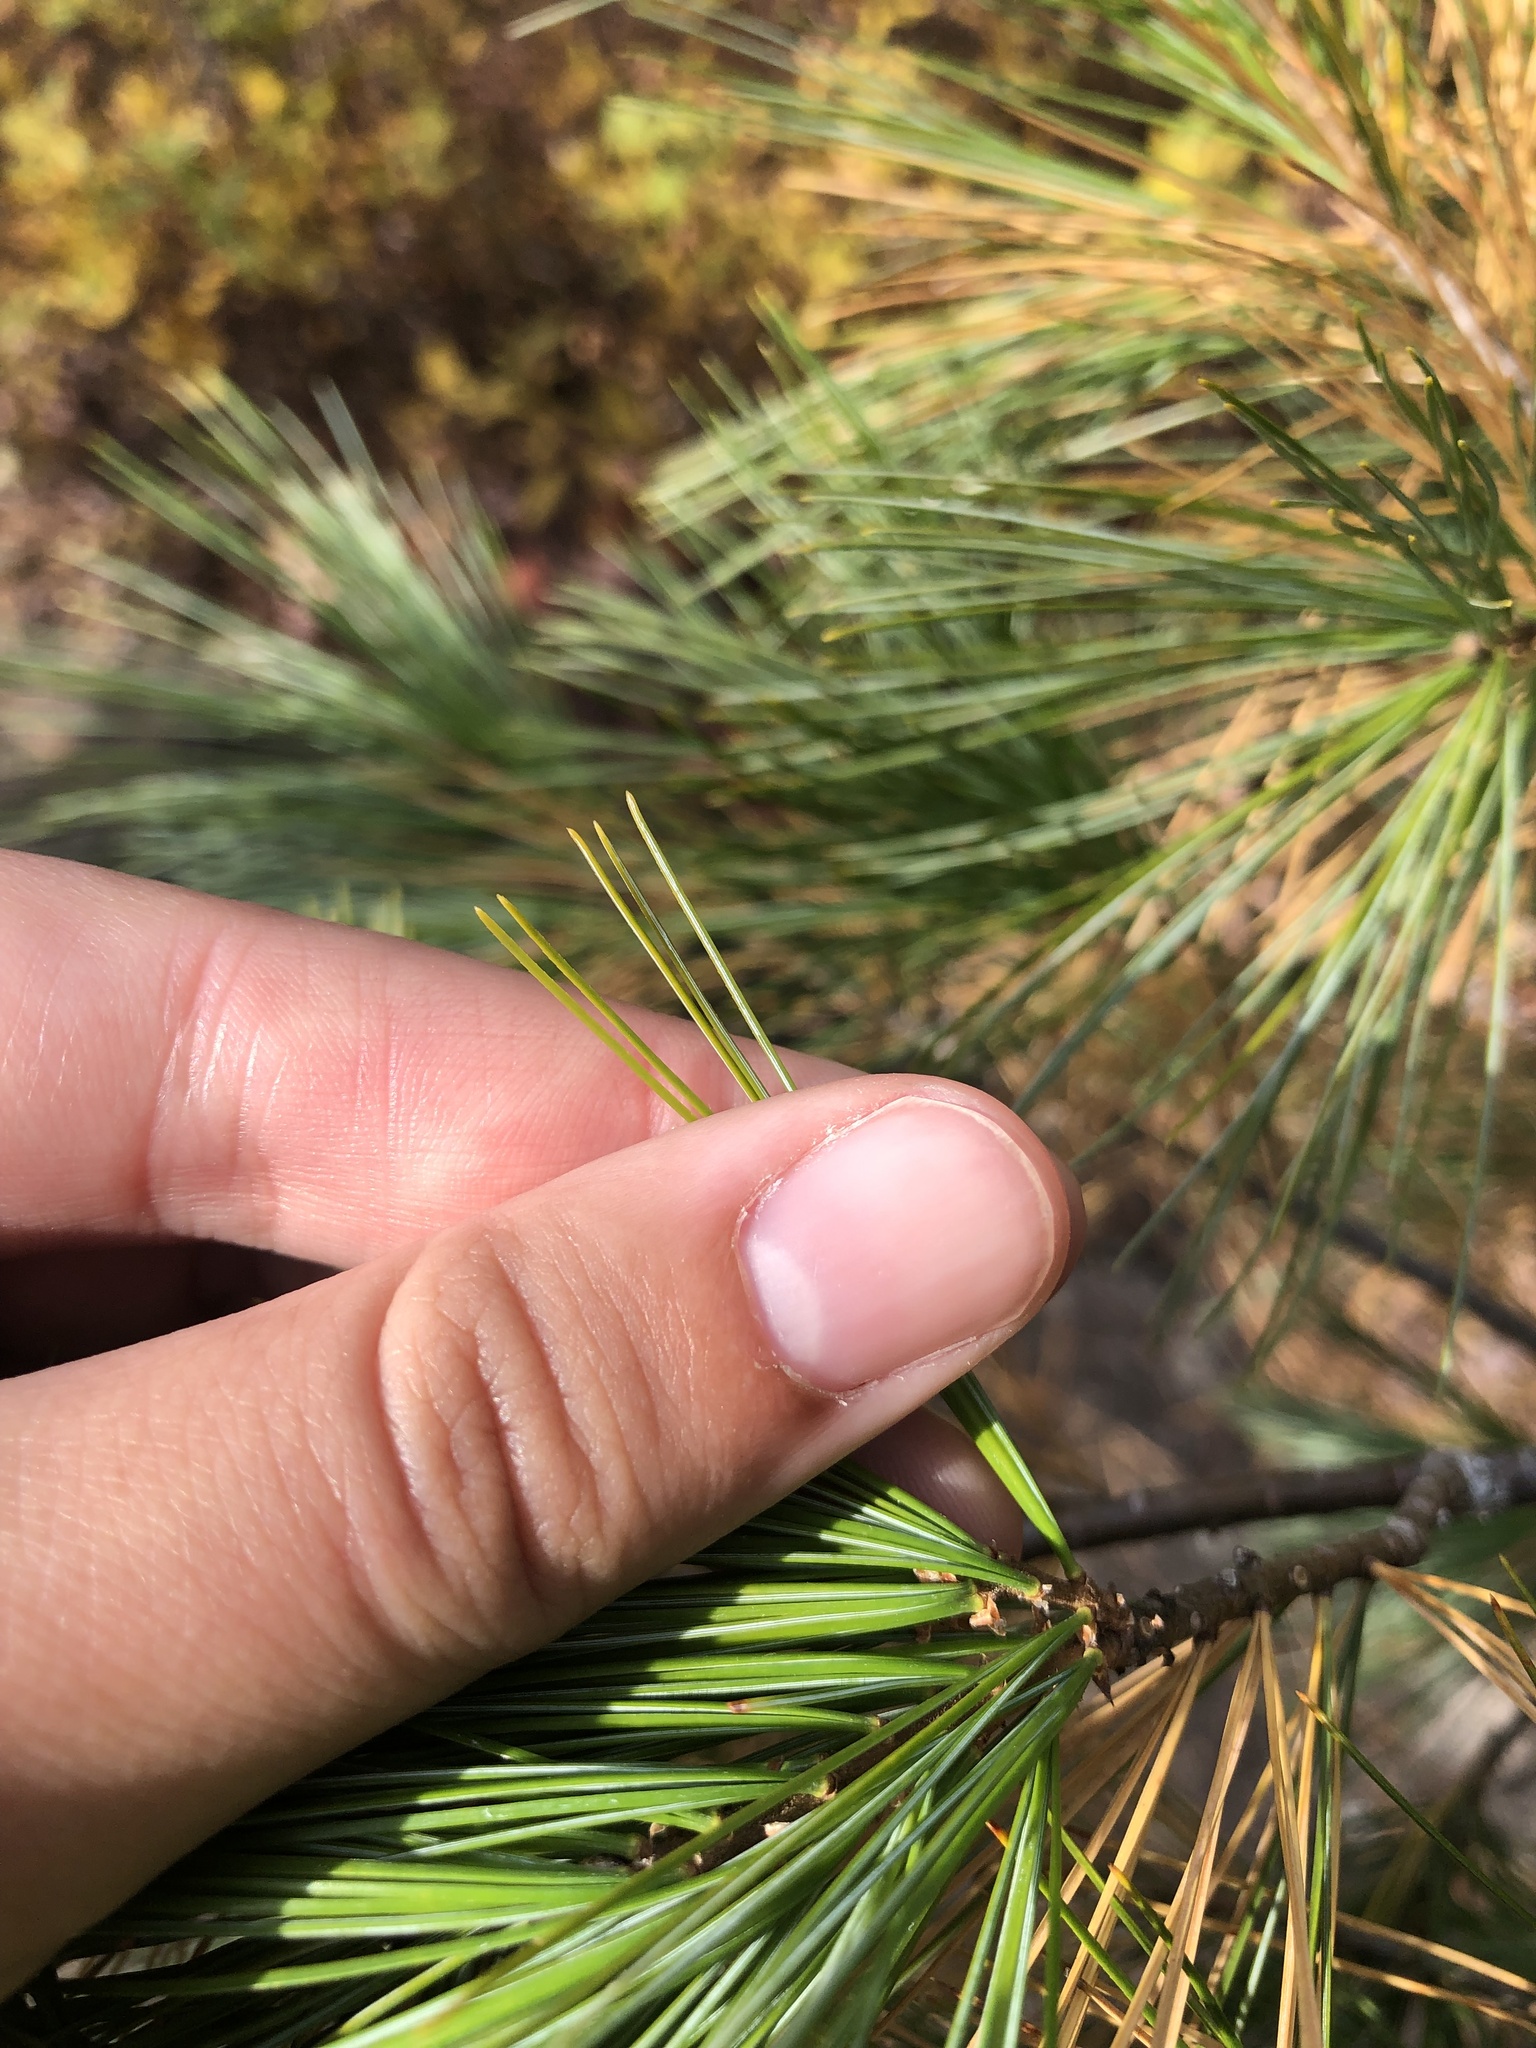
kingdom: Plantae
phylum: Tracheophyta
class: Pinopsida
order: Pinales
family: Pinaceae
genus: Pinus
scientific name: Pinus strobus
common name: Weymouth pine
